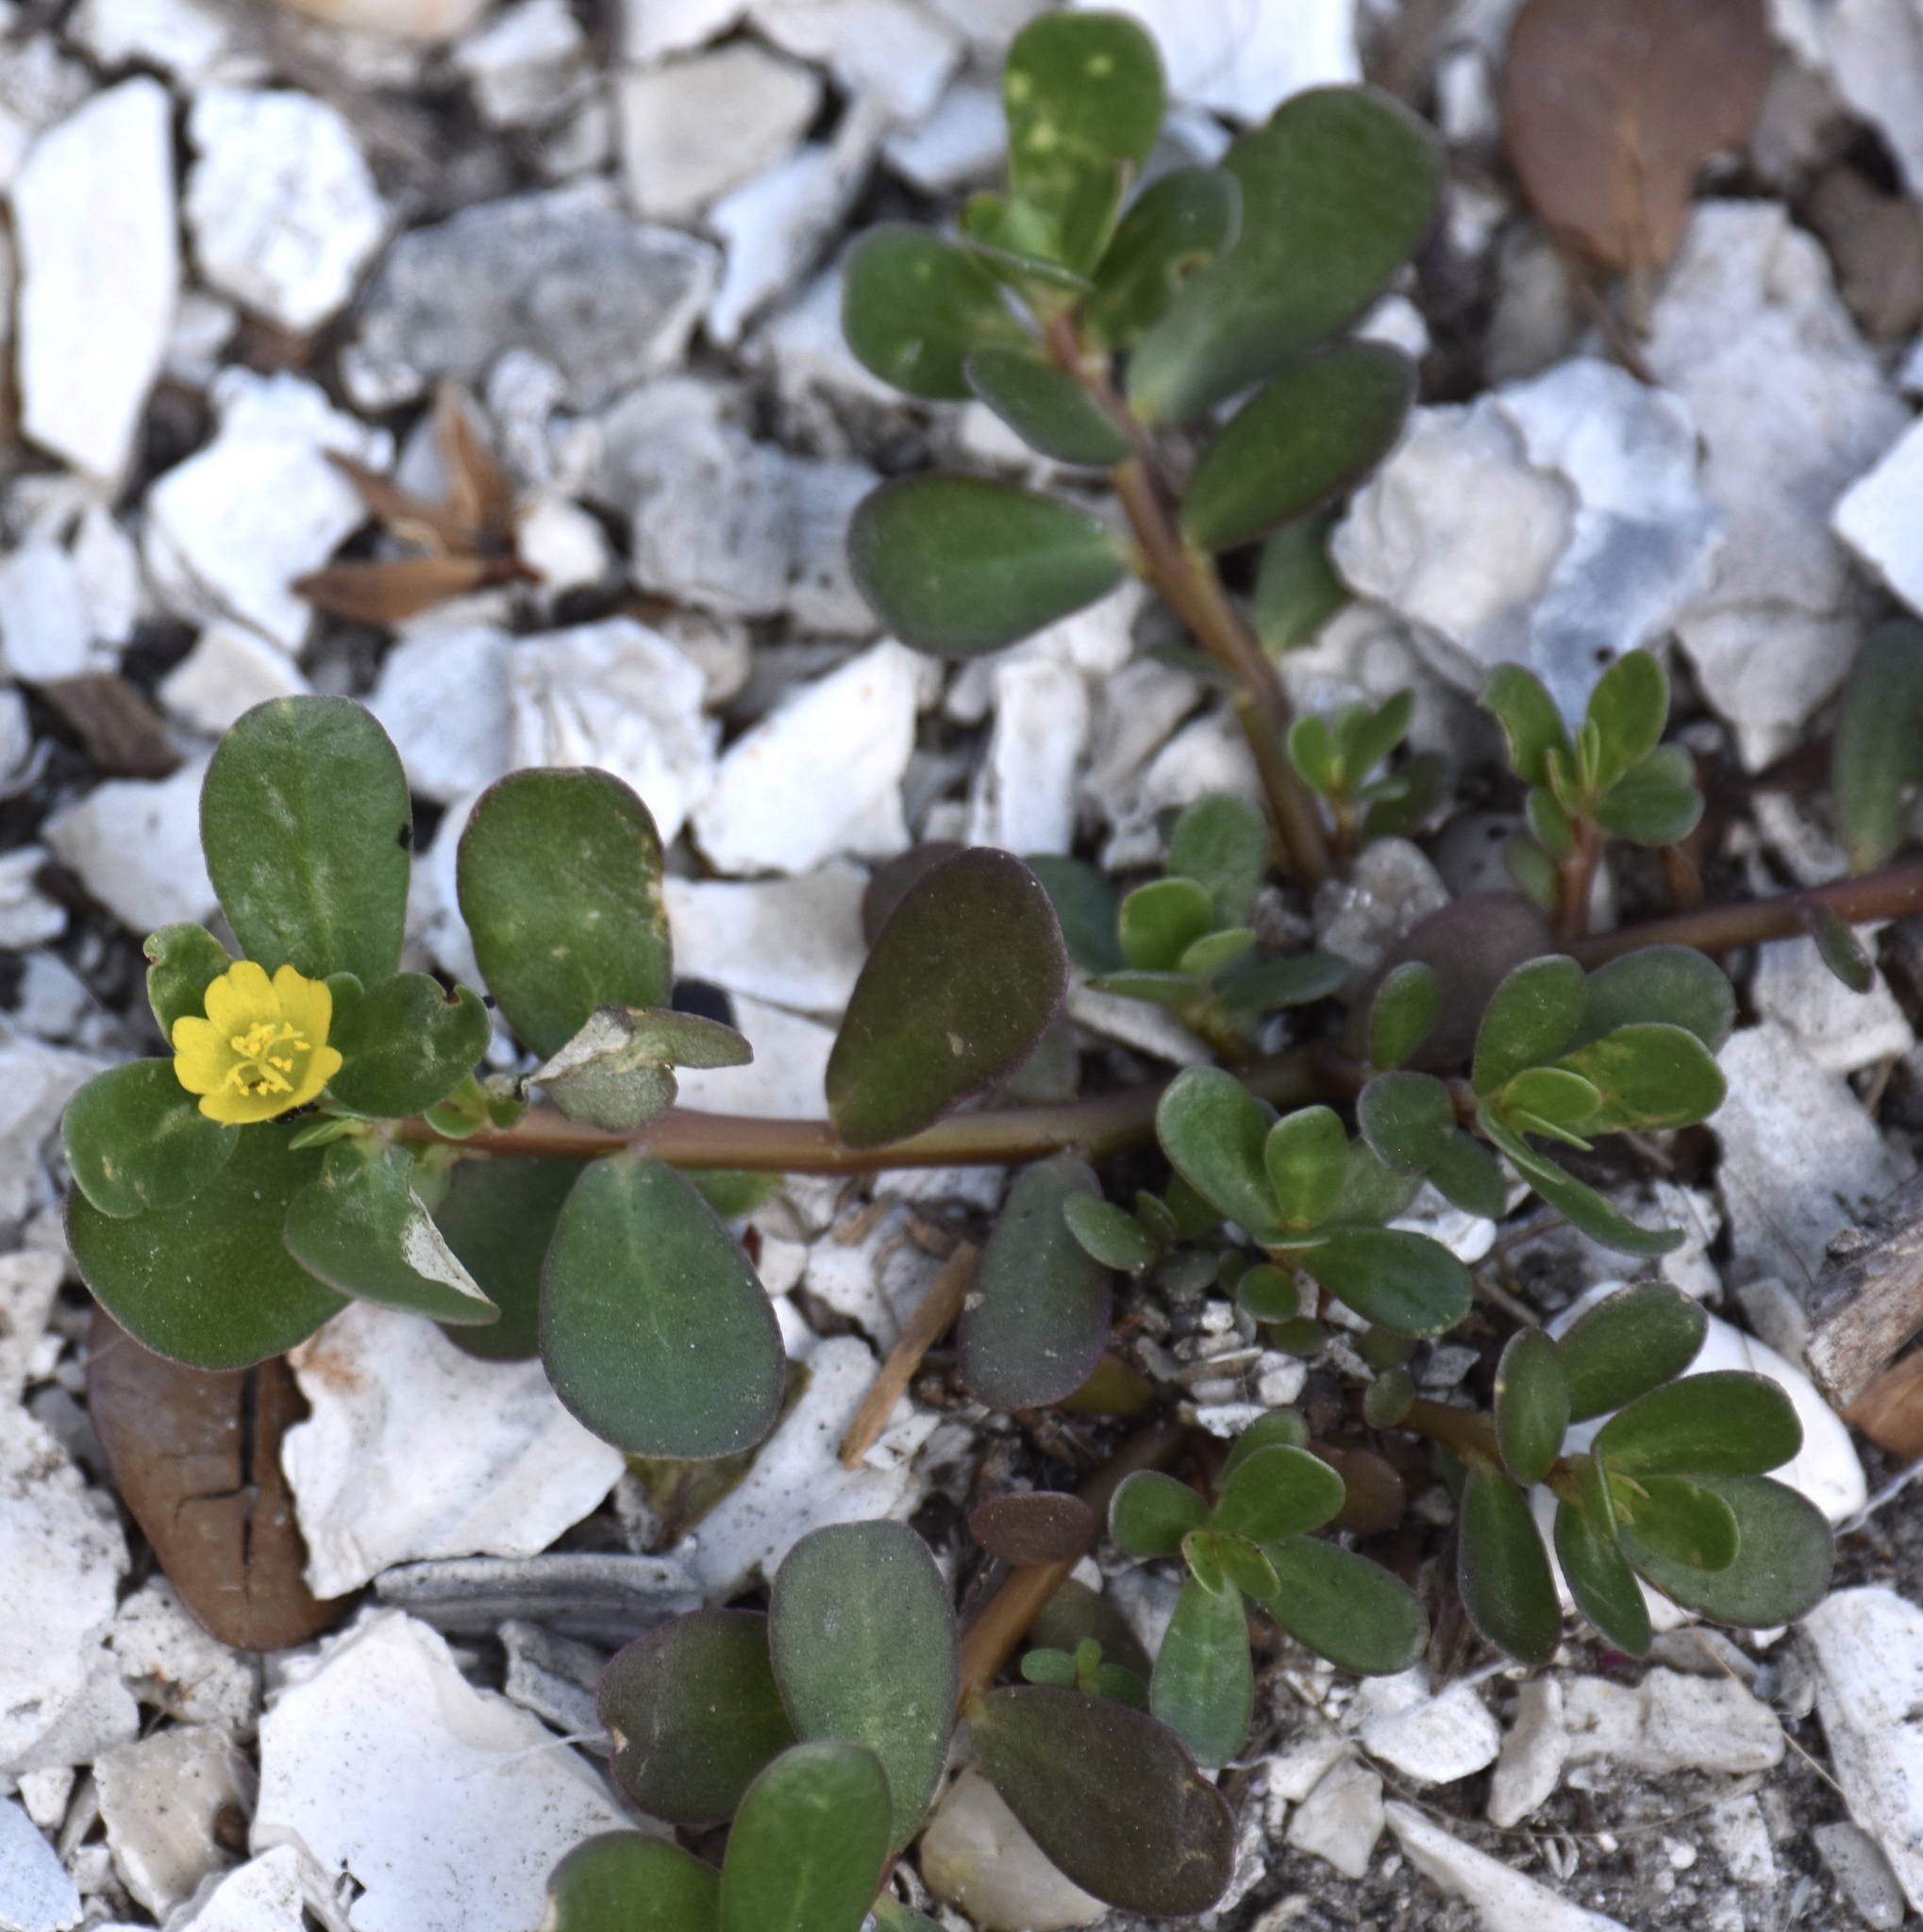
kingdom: Plantae
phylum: Tracheophyta
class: Magnoliopsida
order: Caryophyllales
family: Portulacaceae
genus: Portulaca
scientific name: Portulaca oleracea
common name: Common purslane
